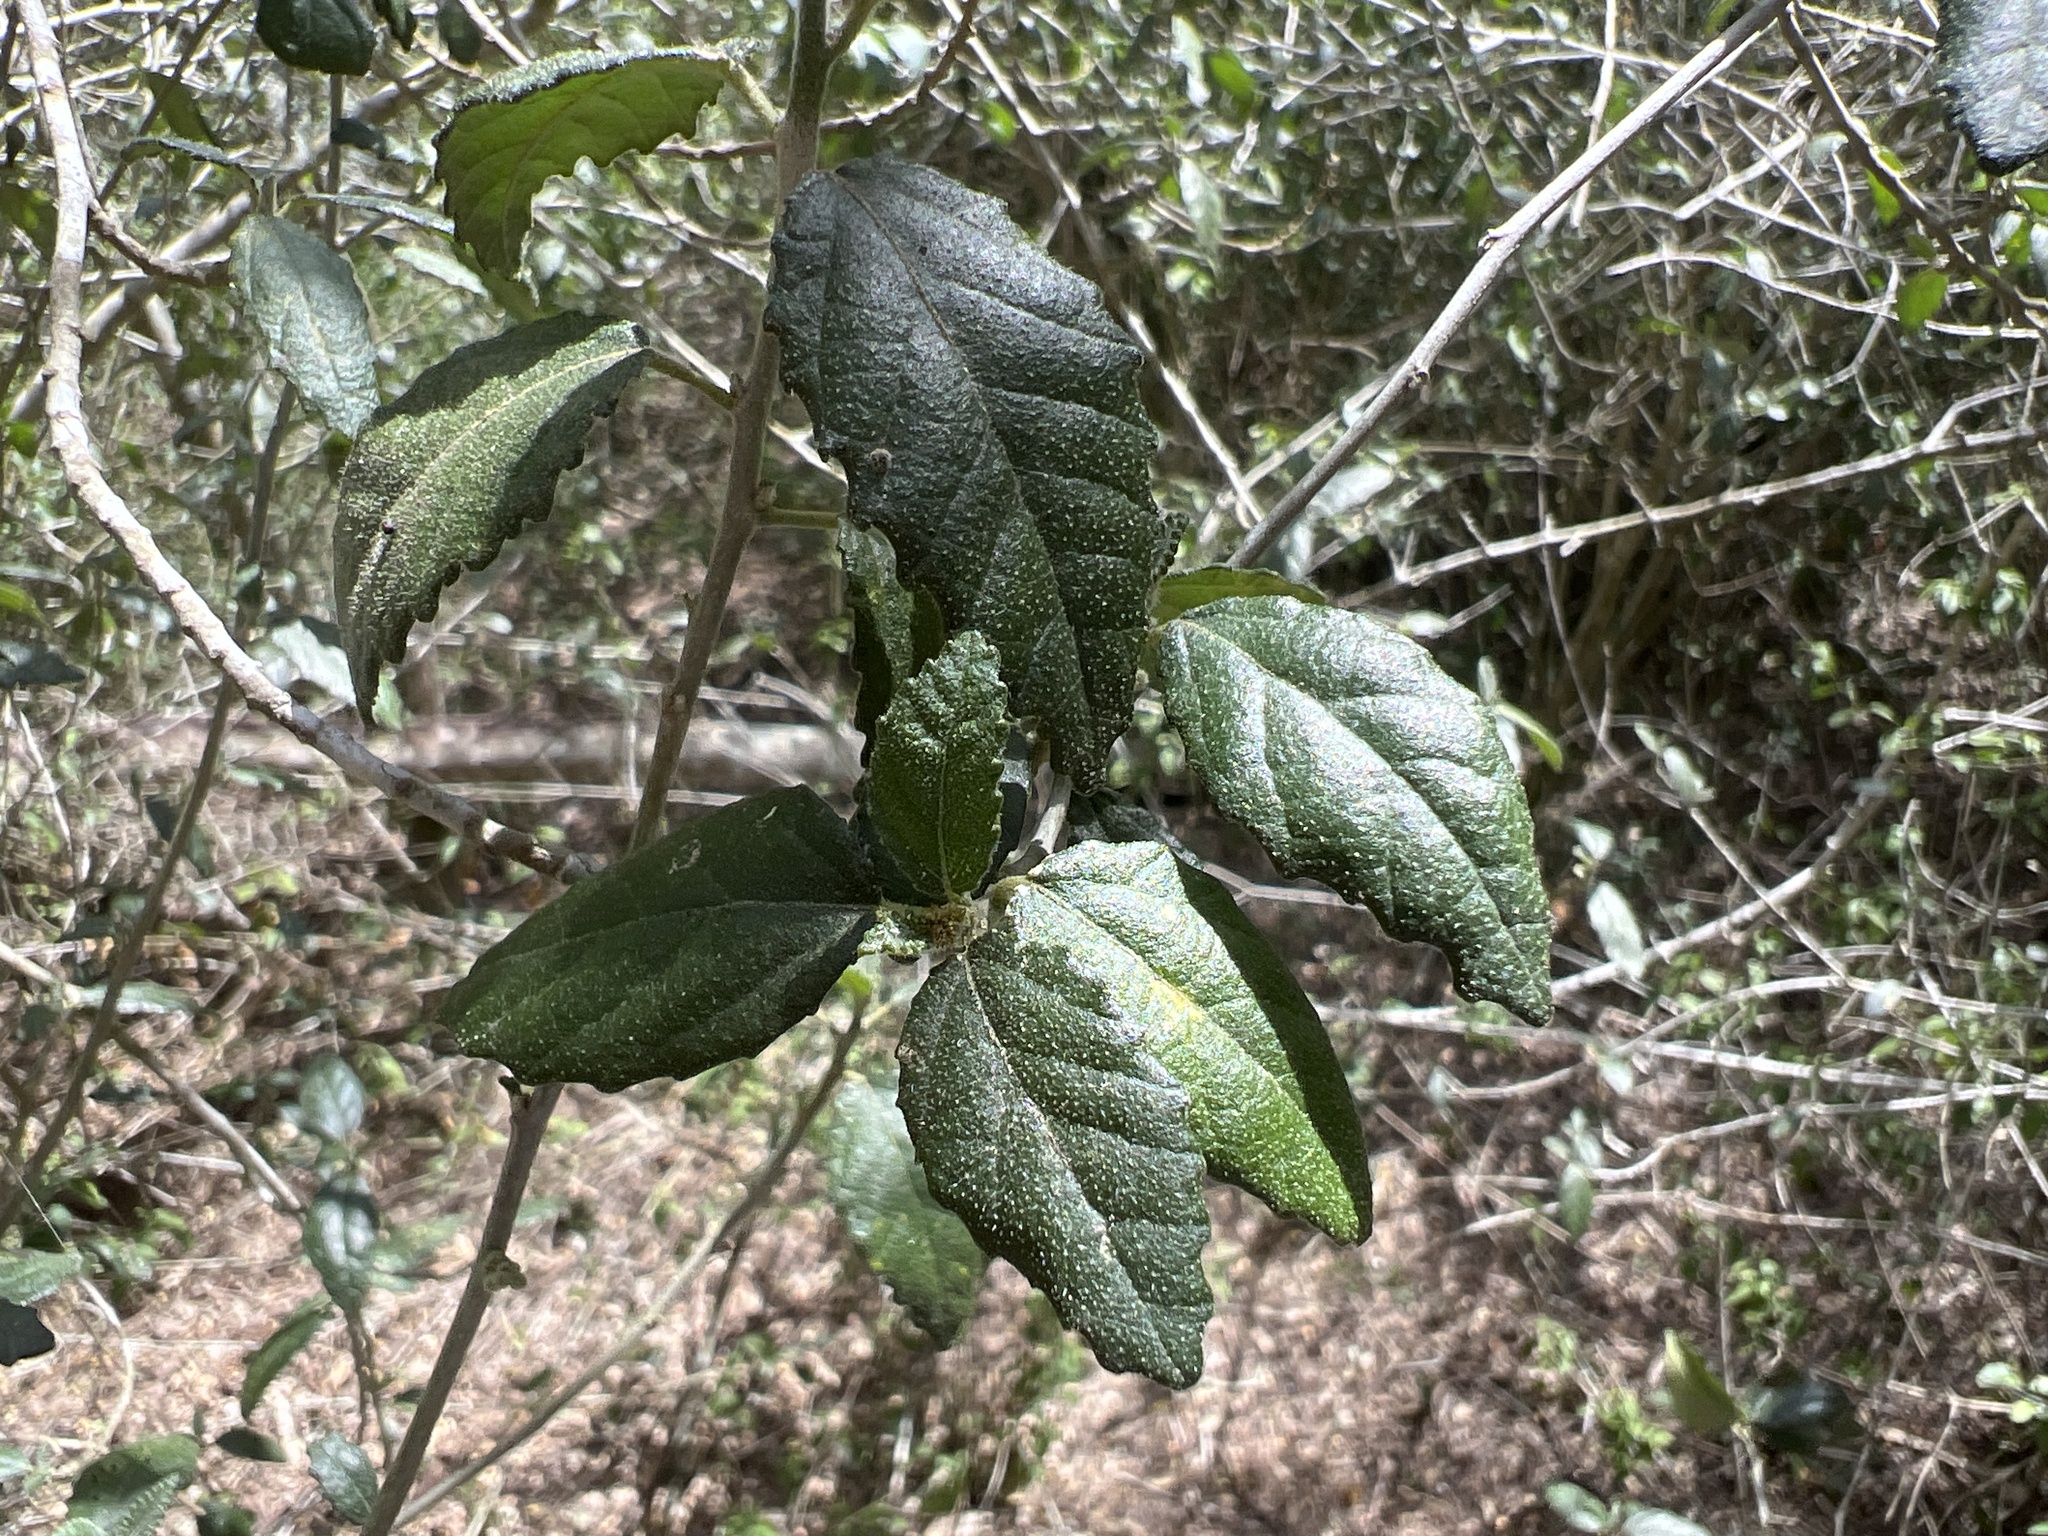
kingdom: Plantae
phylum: Tracheophyta
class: Magnoliopsida
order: Malpighiales
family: Euphorbiaceae
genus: Bernardia
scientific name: Bernardia myricifolia
